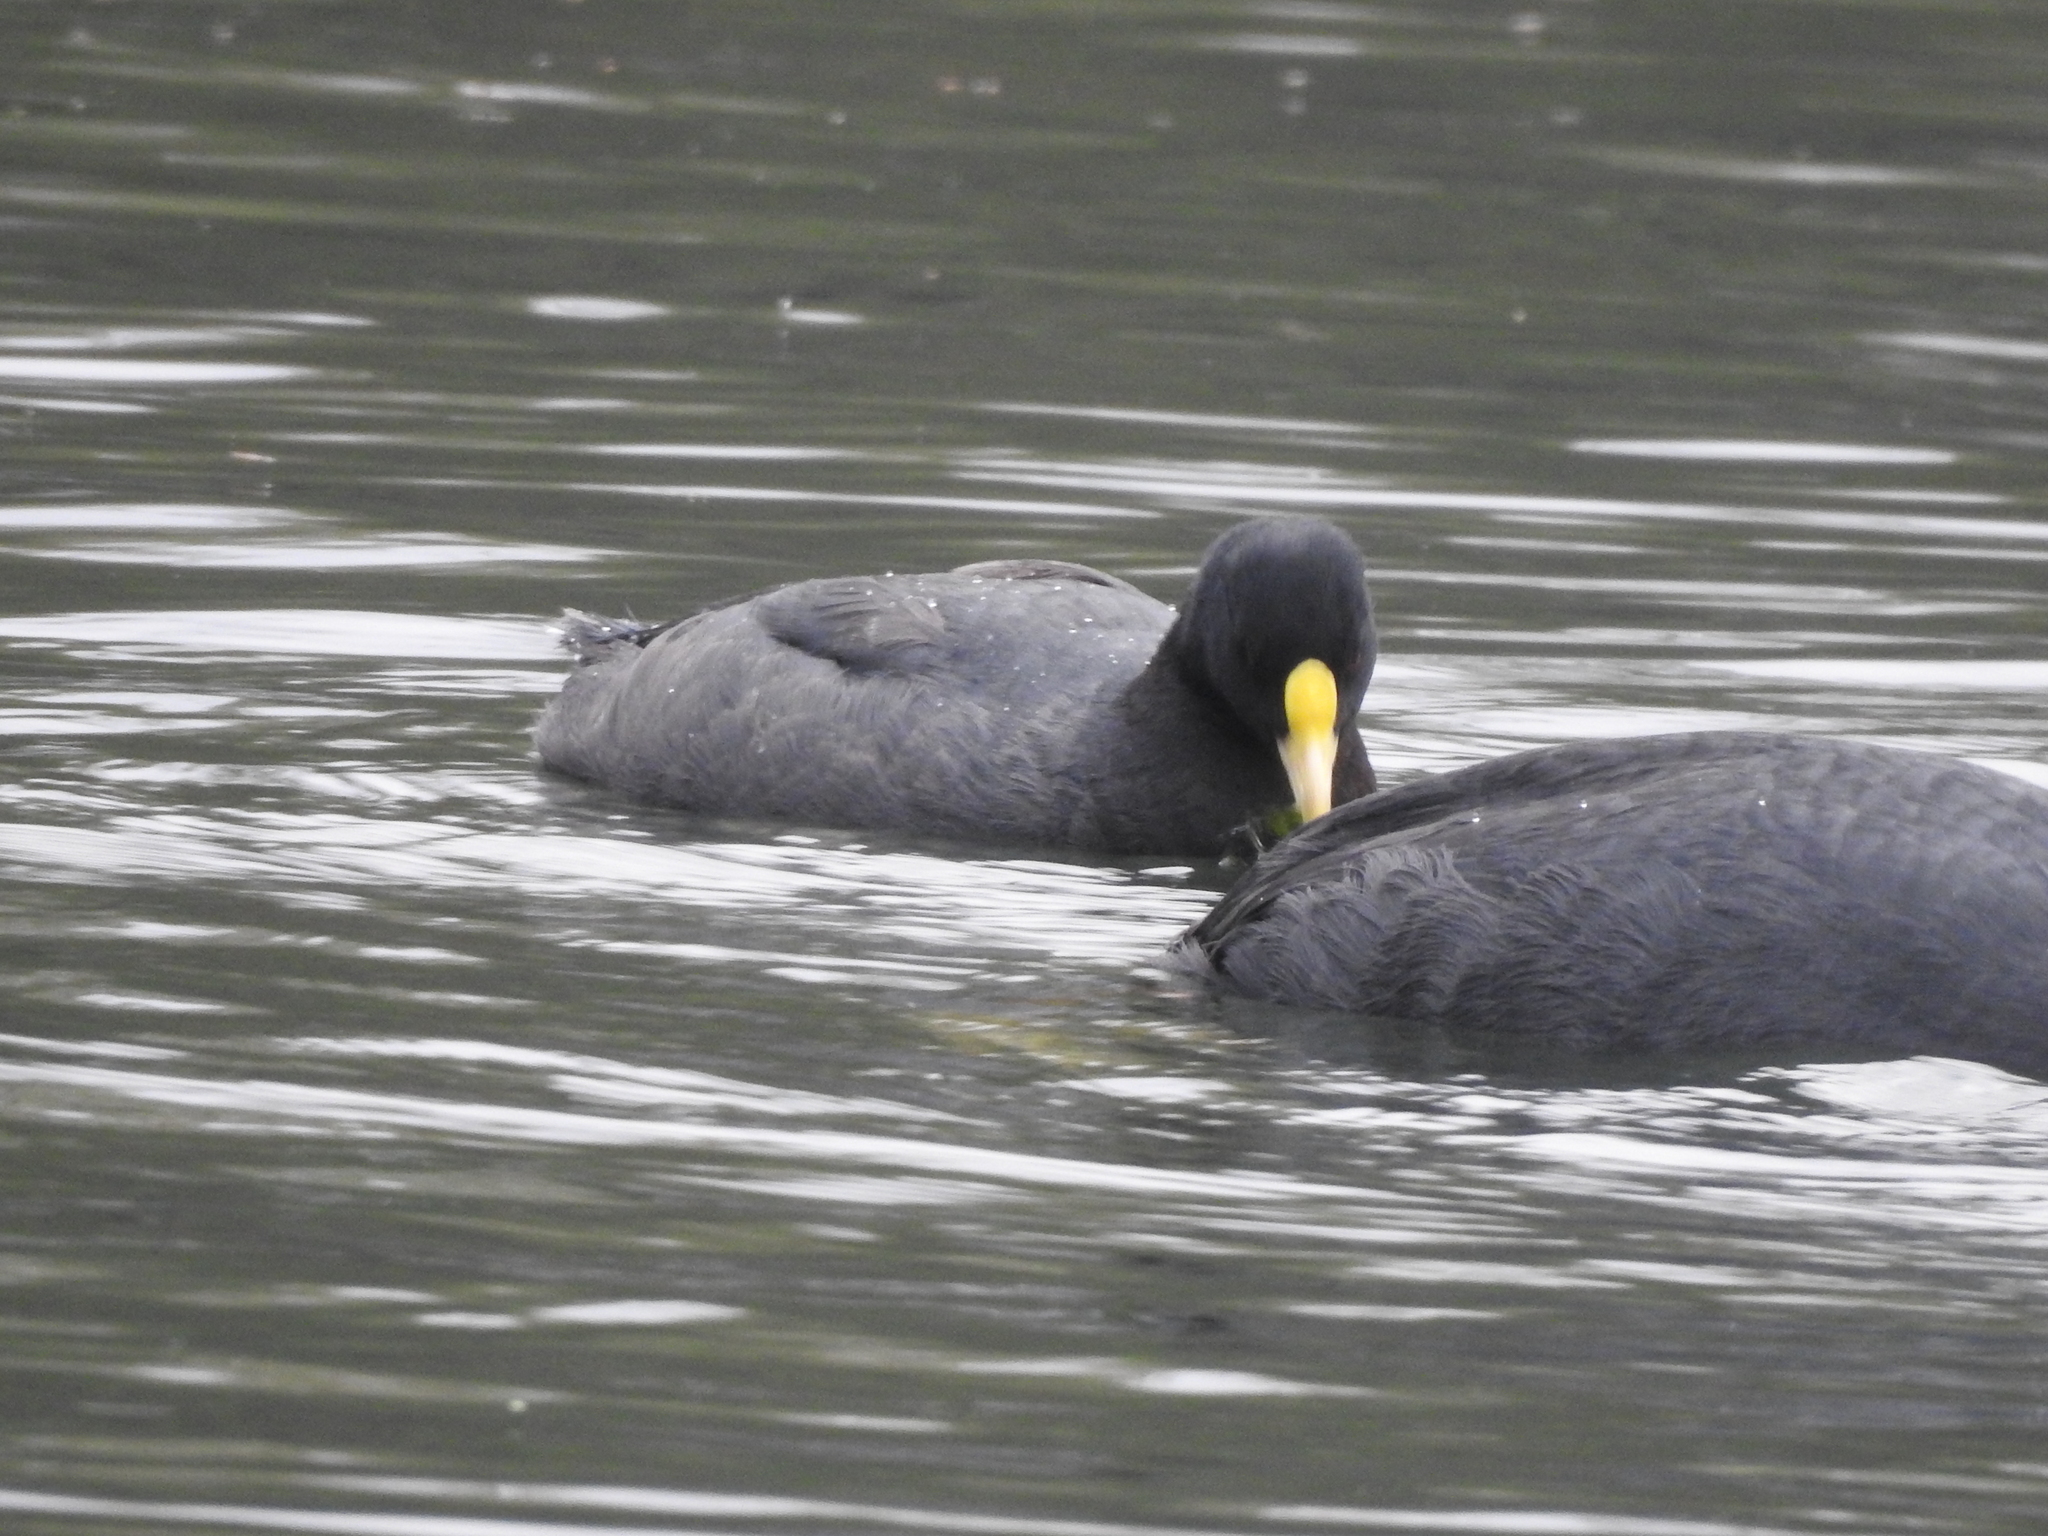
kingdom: Animalia
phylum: Chordata
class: Aves
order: Gruiformes
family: Rallidae
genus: Fulica
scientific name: Fulica leucoptera
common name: White-winged coot
